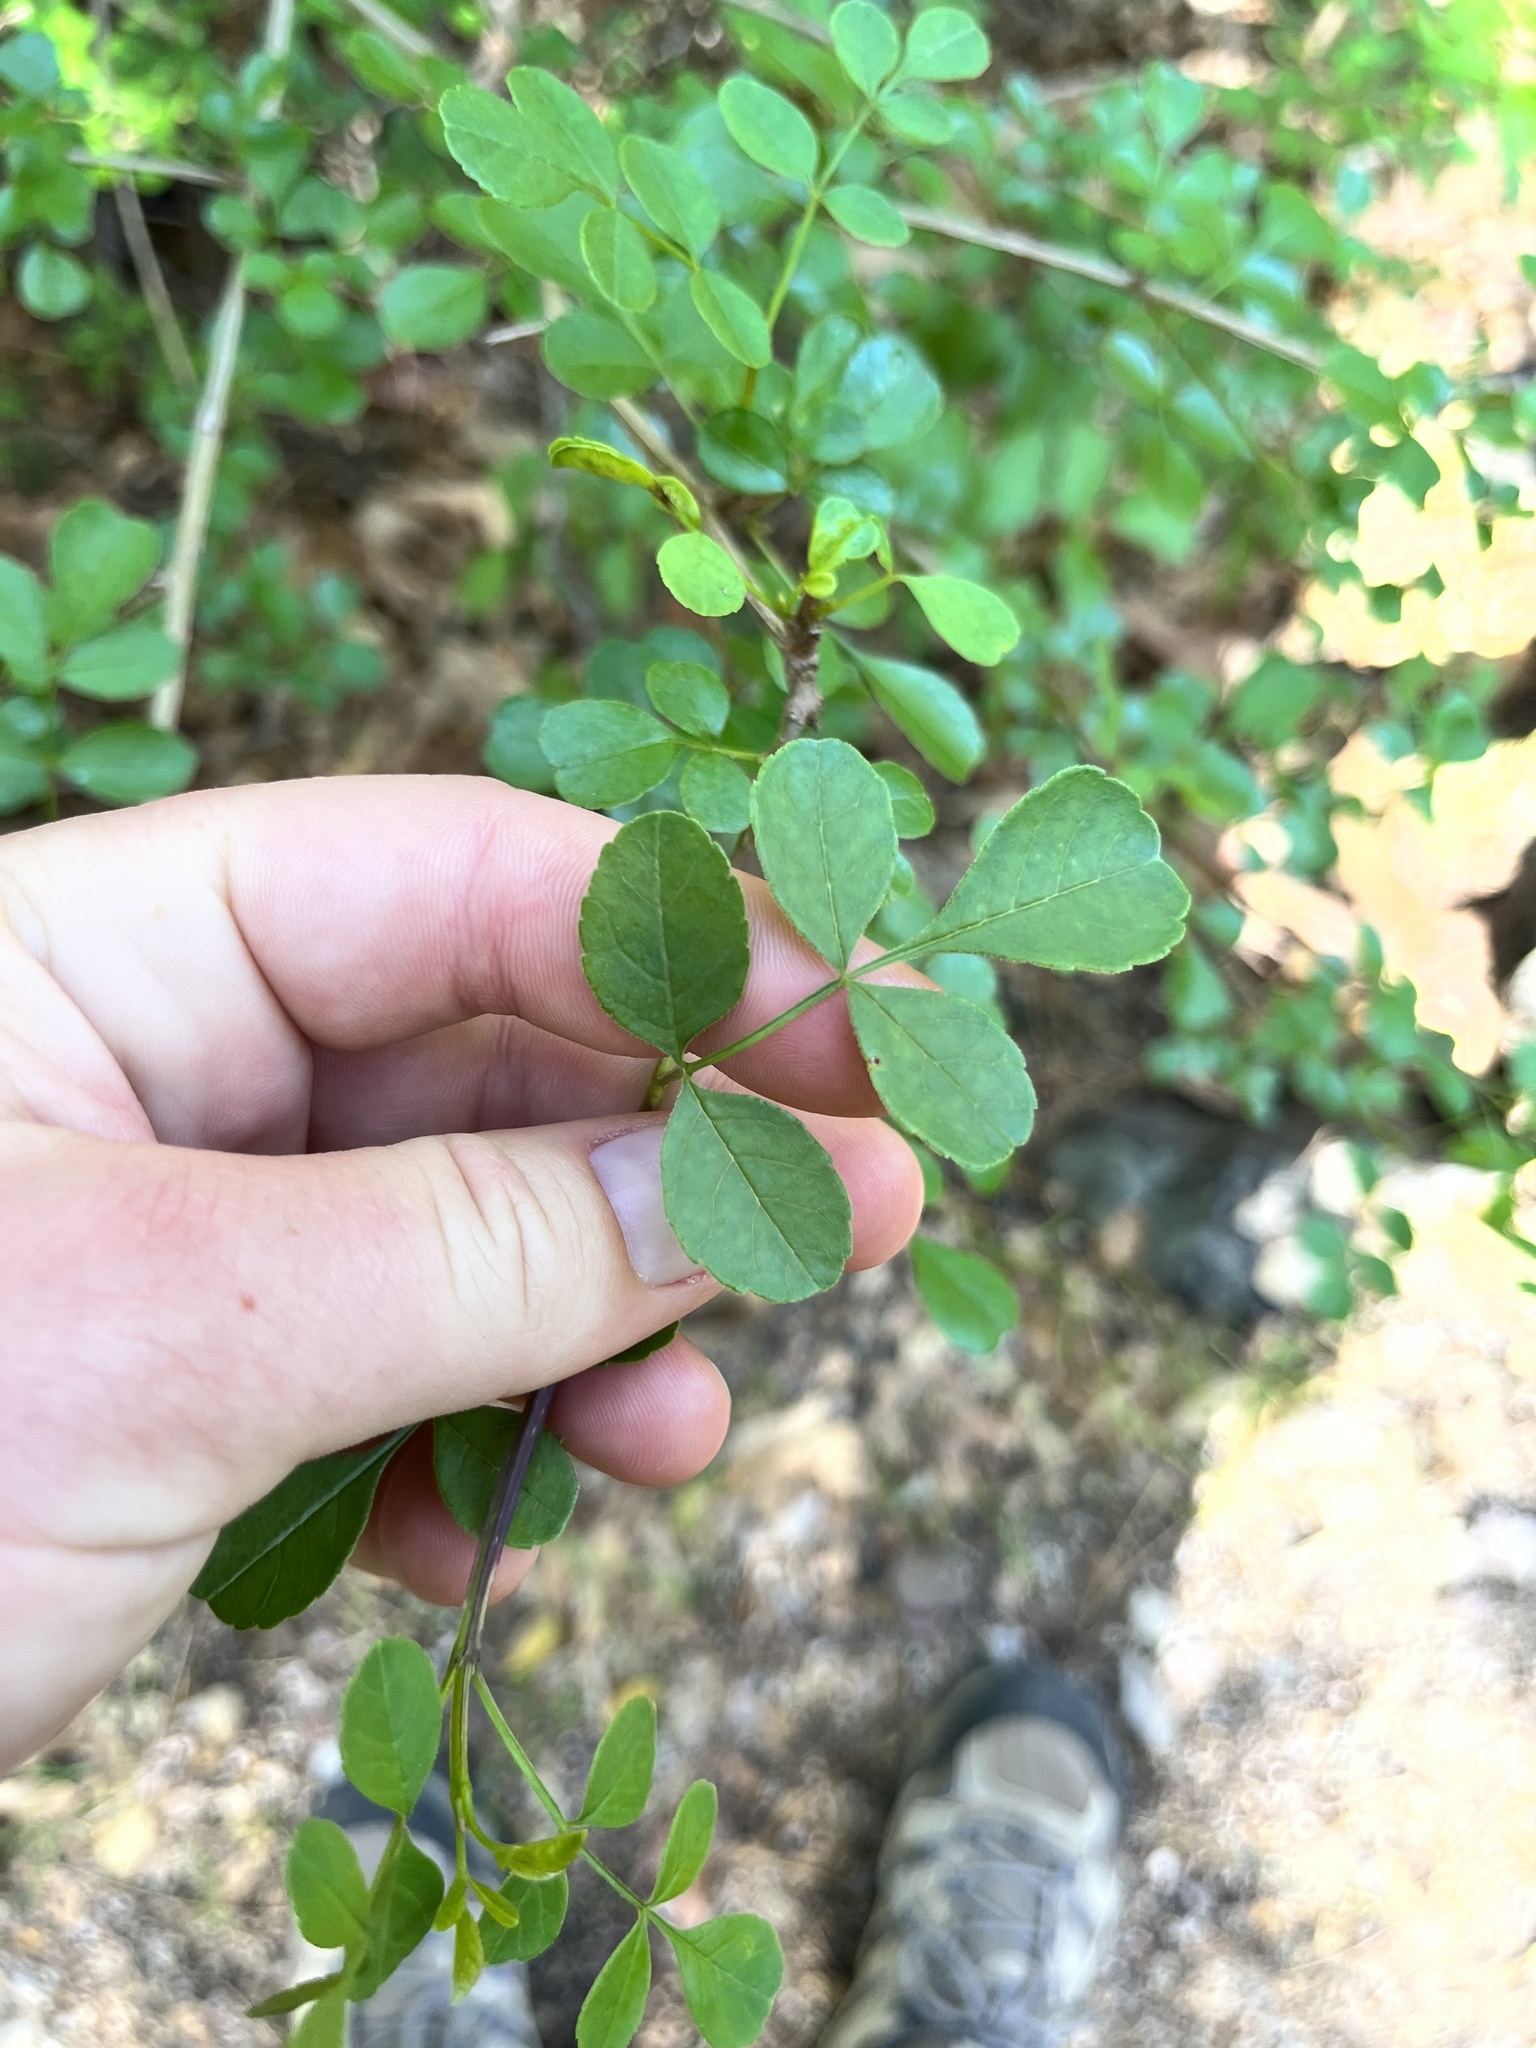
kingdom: Plantae
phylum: Tracheophyta
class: Magnoliopsida
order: Lamiales
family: Oleaceae
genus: Fraxinus
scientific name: Fraxinus dipetala
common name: California ash
